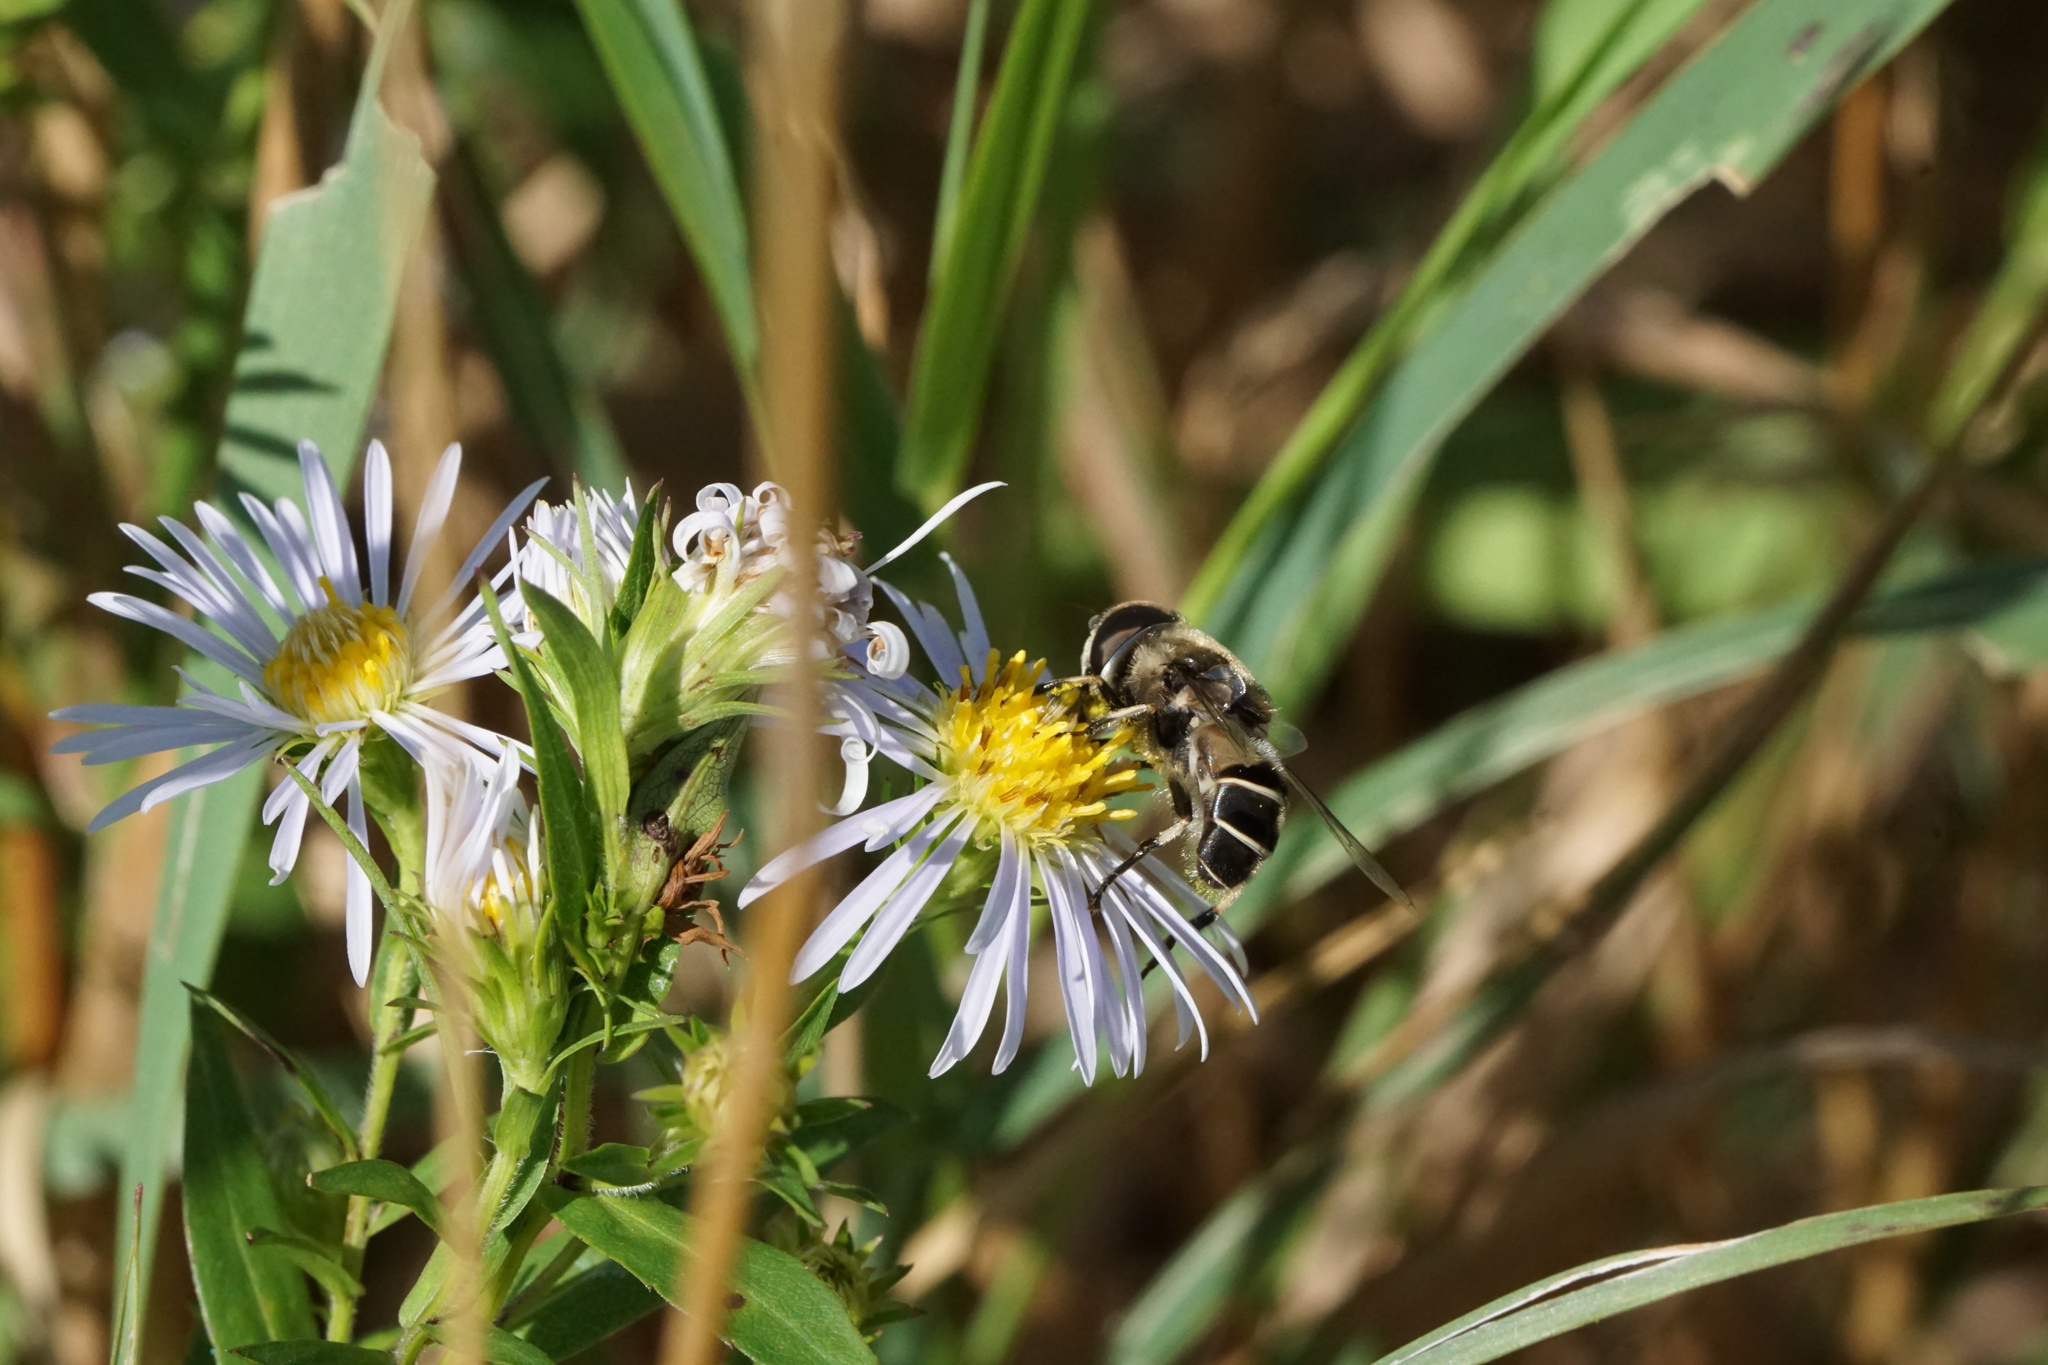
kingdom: Animalia
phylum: Arthropoda
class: Insecta
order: Diptera
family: Syrphidae
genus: Eristalis
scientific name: Eristalis dimidiata
